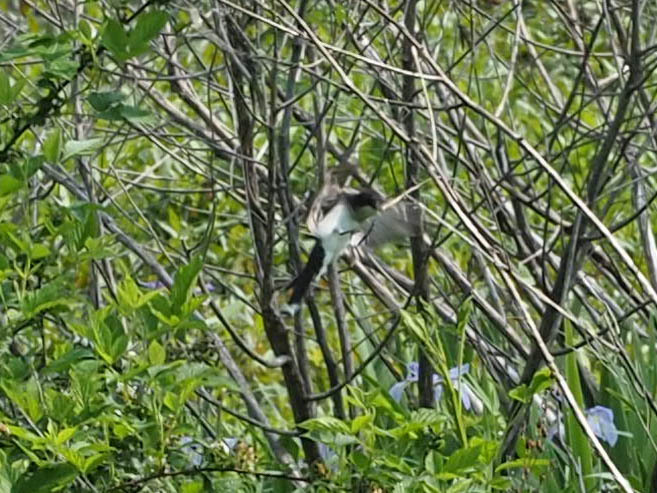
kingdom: Animalia
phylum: Chordata
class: Aves
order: Passeriformes
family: Tyrannidae
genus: Tyrannus
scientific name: Tyrannus tyrannus
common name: Eastern kingbird
